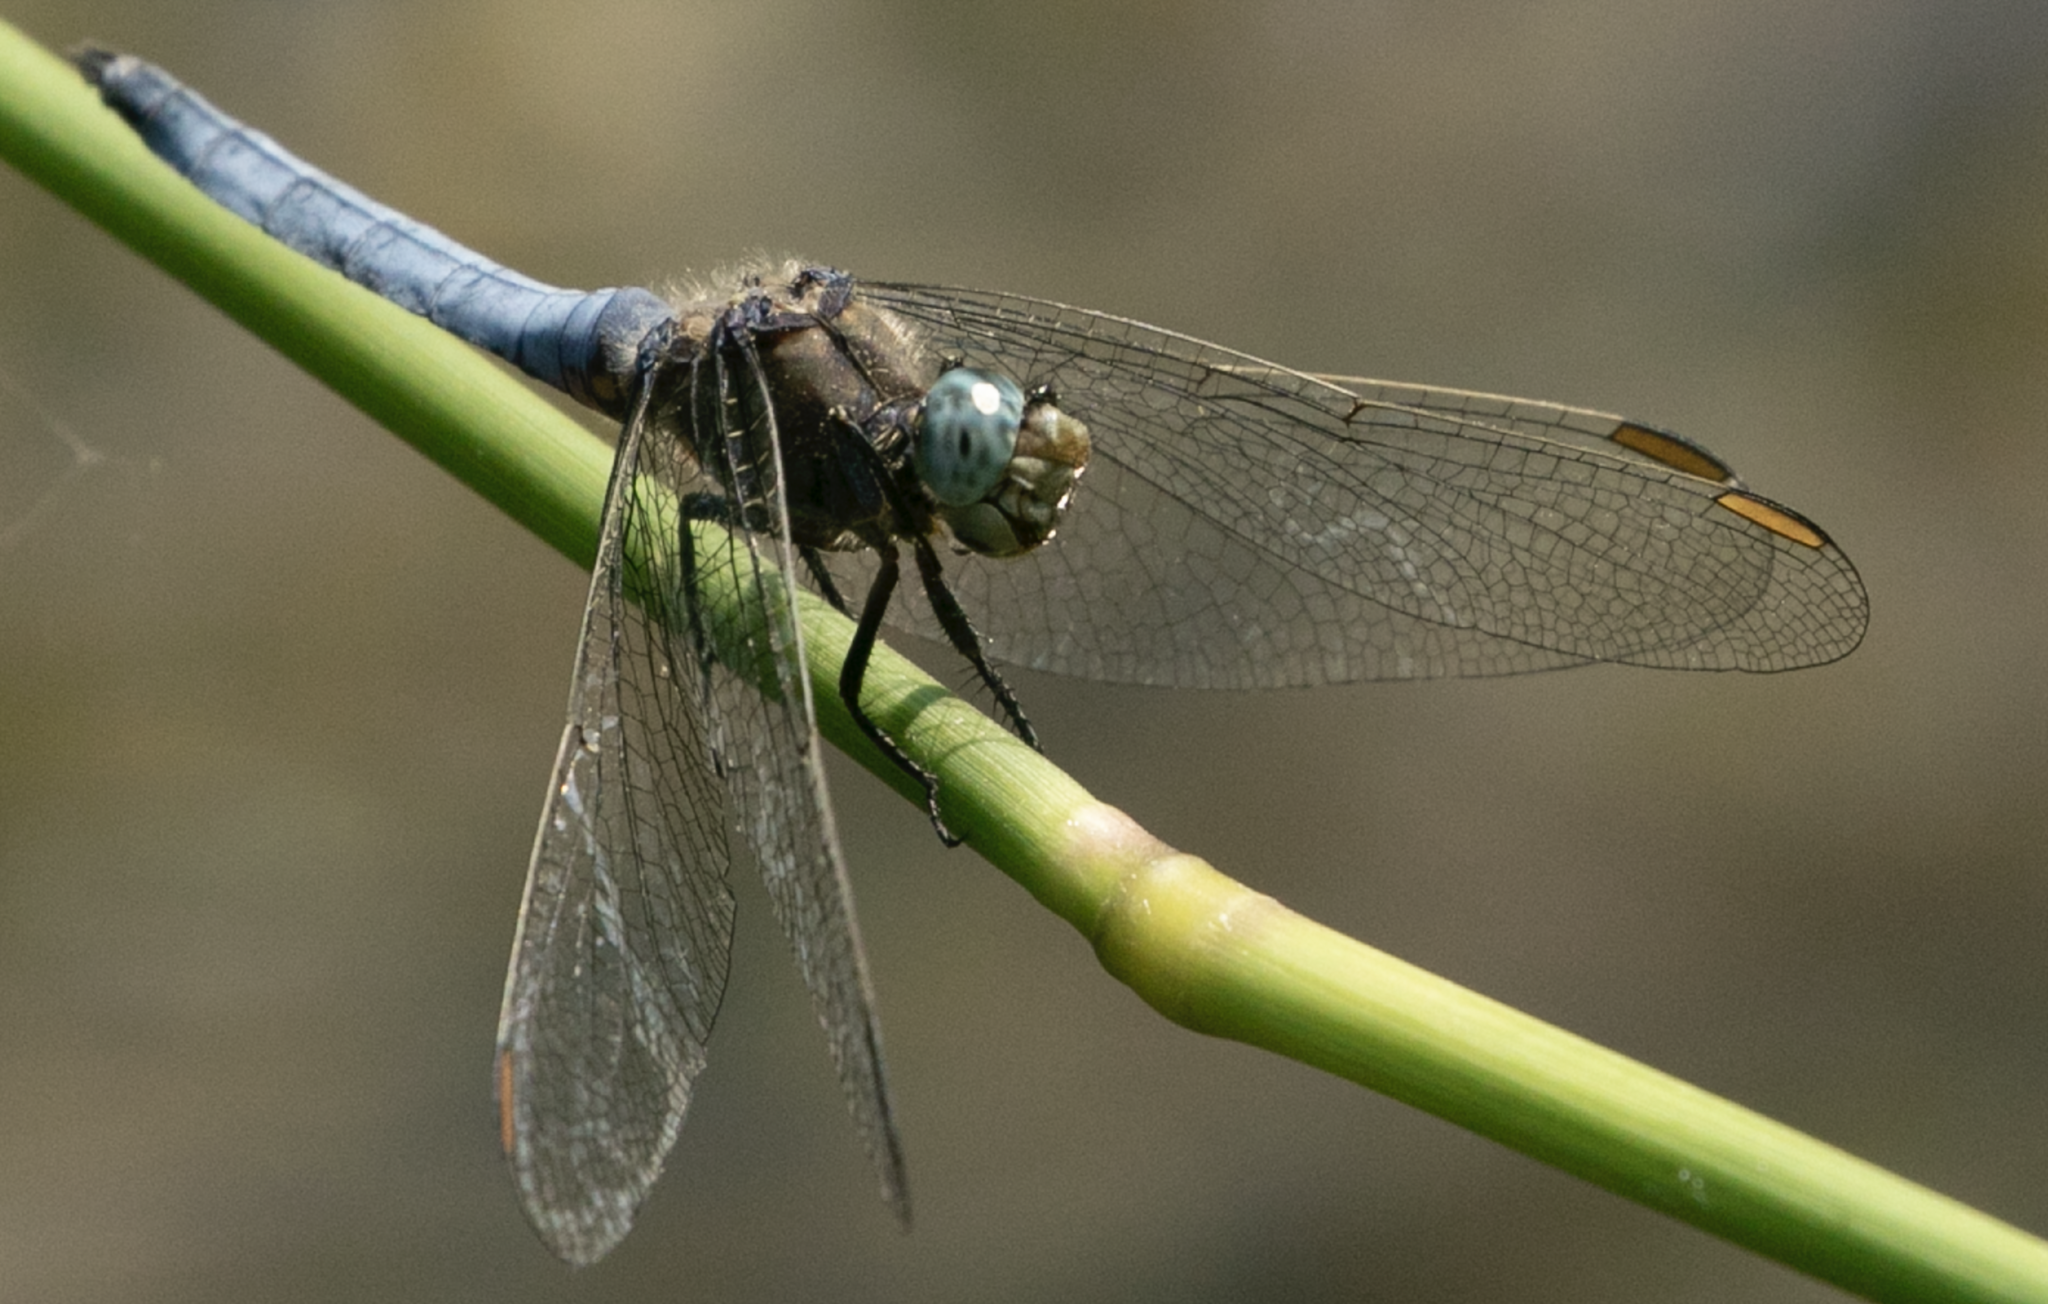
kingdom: Animalia
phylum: Arthropoda
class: Insecta
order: Odonata
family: Libellulidae
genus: Orthetrum
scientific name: Orthetrum coerulescens
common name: Keeled skimmer
